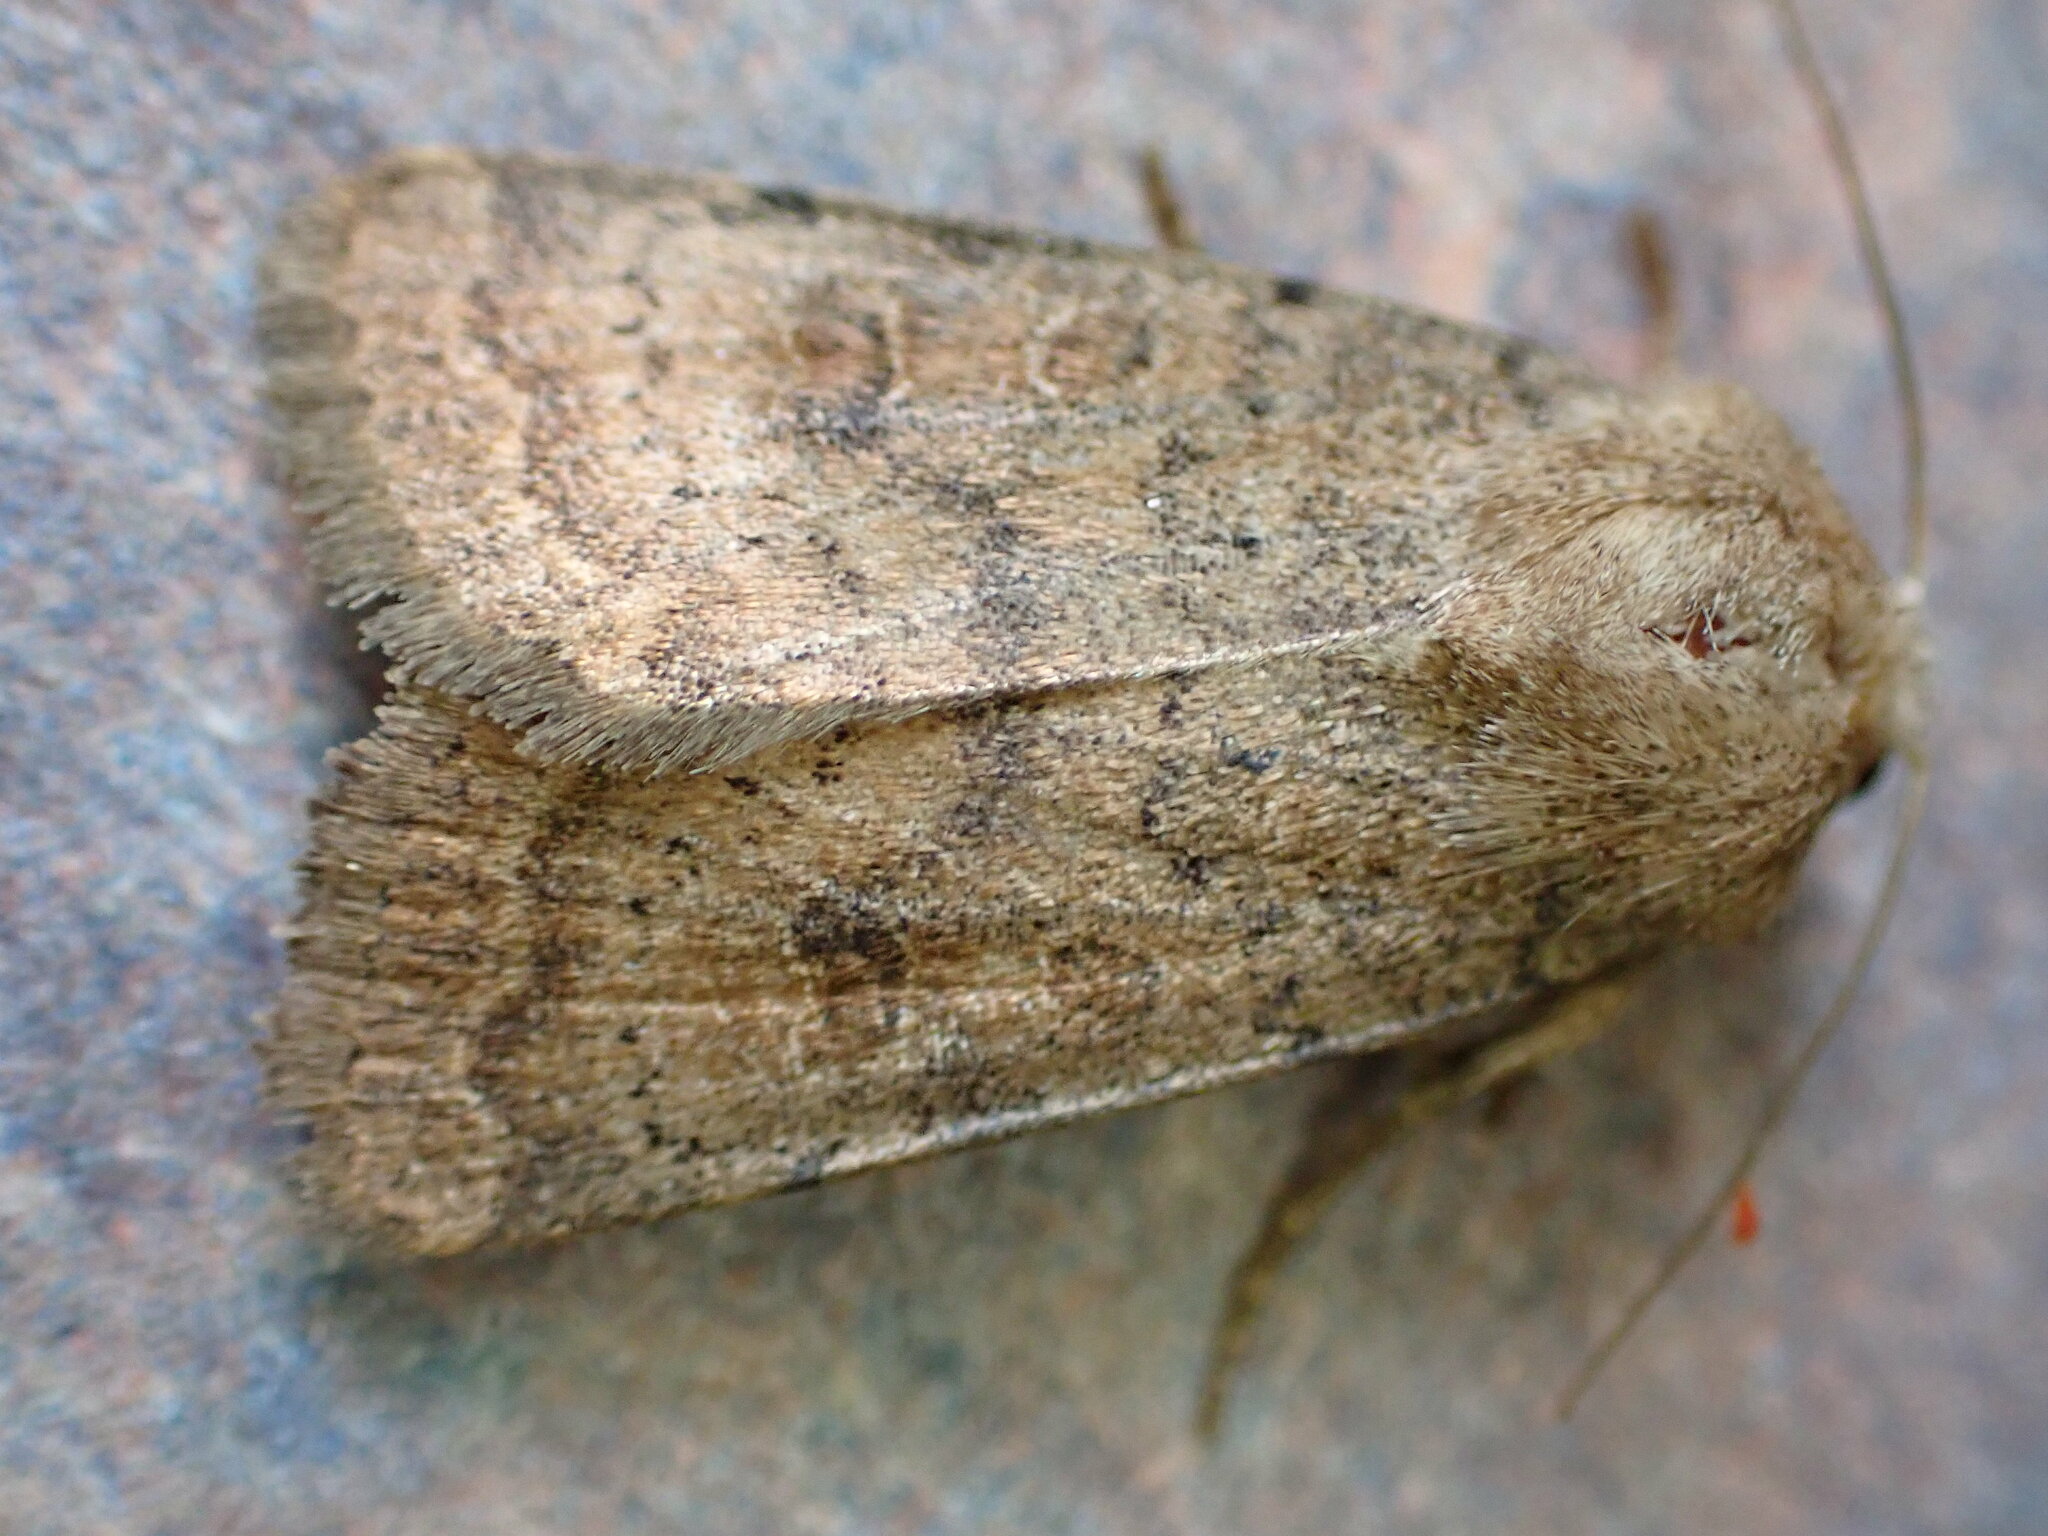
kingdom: Animalia
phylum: Arthropoda
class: Insecta
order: Lepidoptera
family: Noctuidae
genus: Hoplodrina
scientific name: Hoplodrina octogenaria
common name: Uncertain
